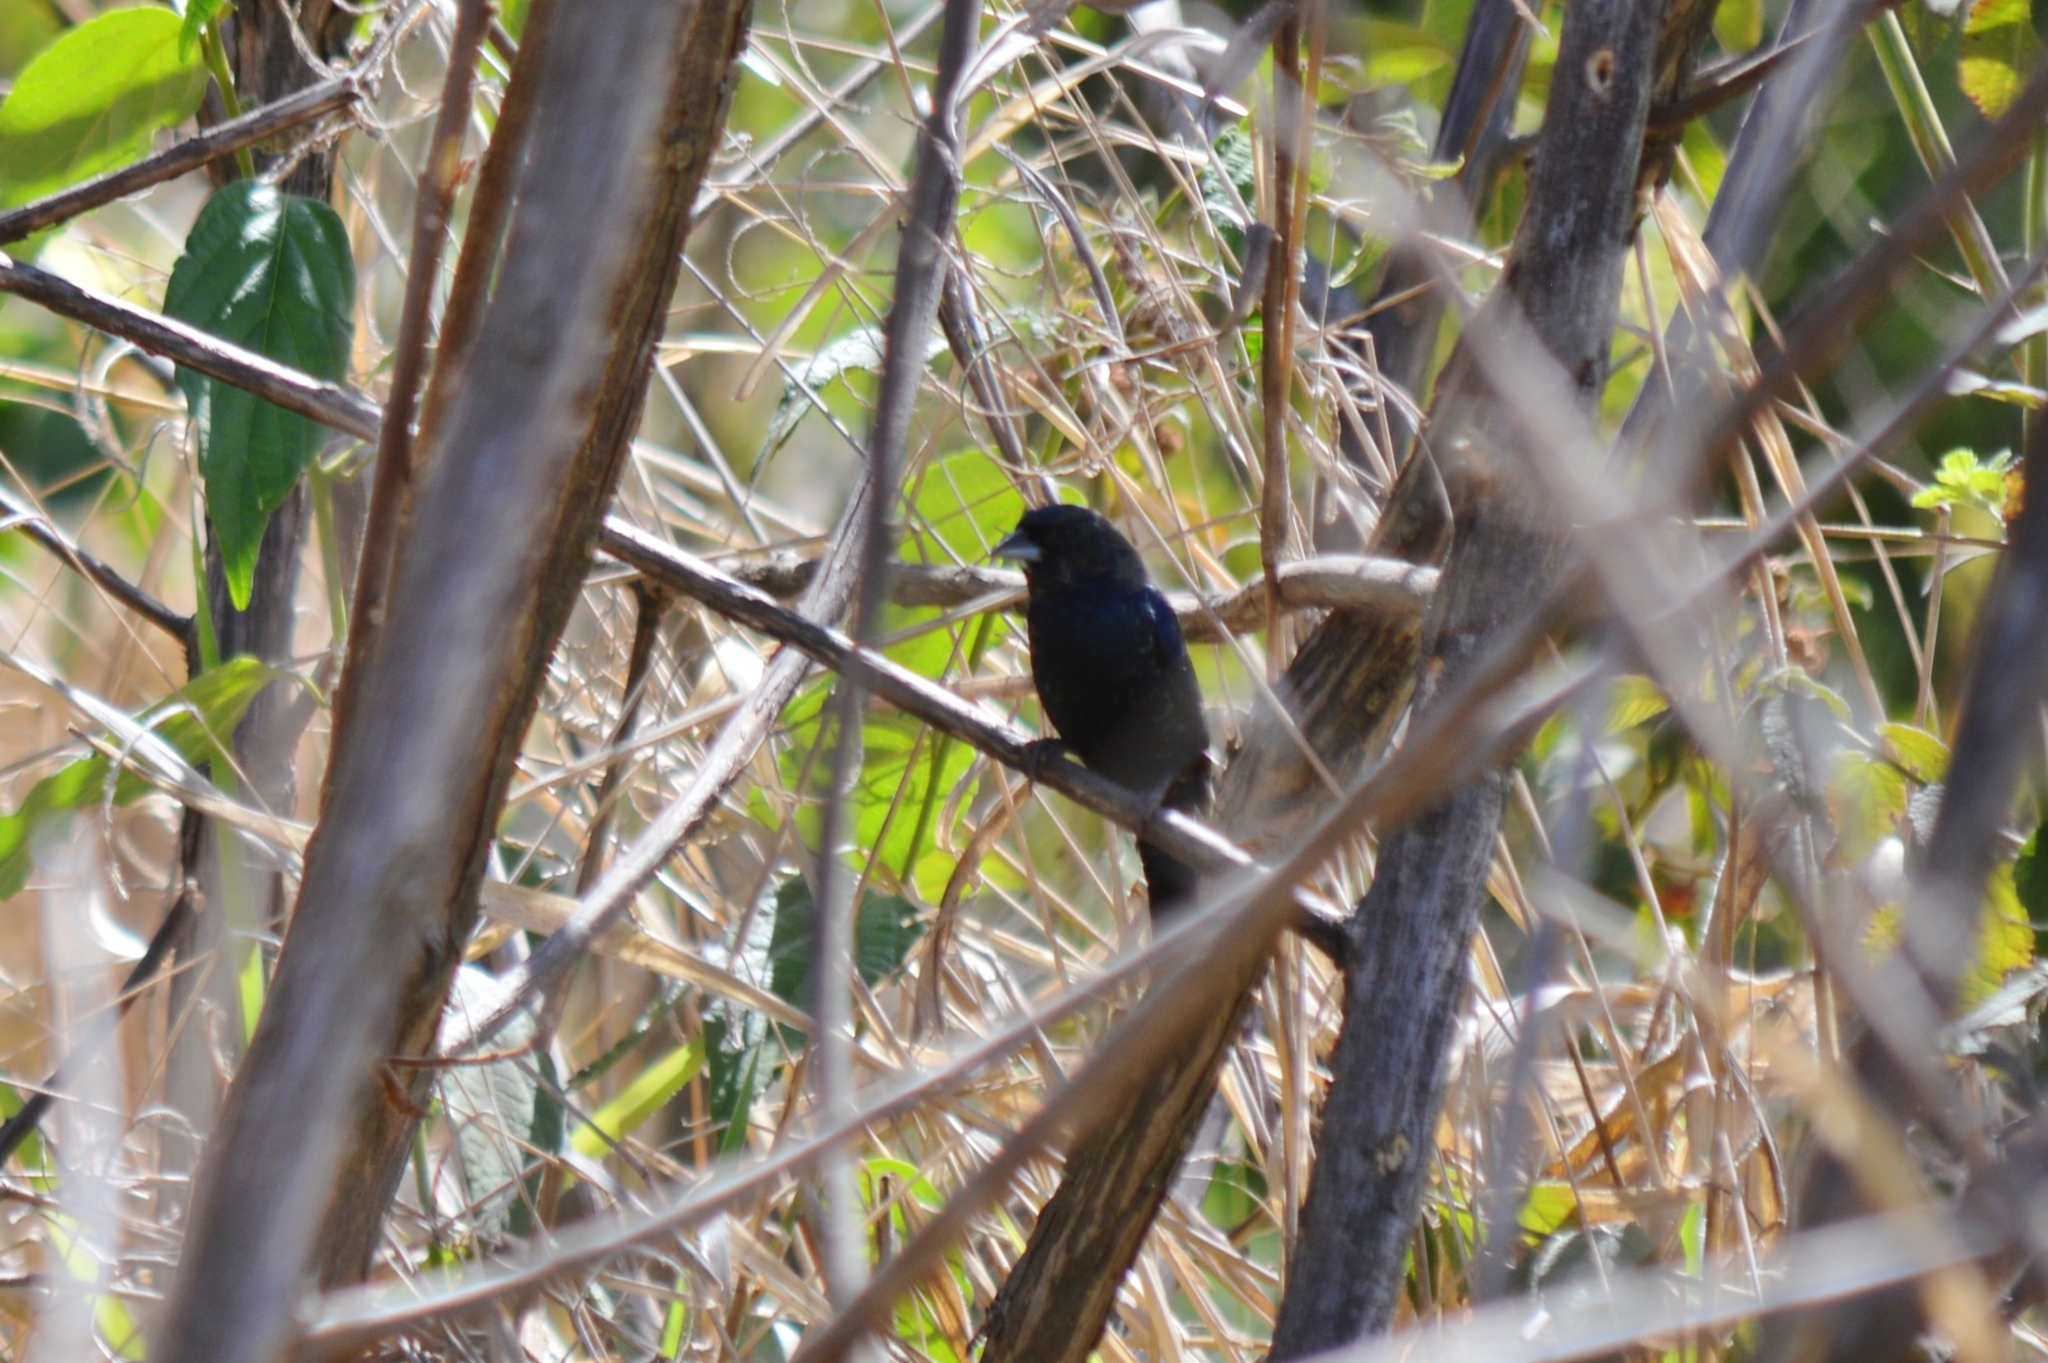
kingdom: Animalia
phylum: Chordata
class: Aves
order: Passeriformes
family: Thraupidae
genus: Volatinia
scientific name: Volatinia jacarina
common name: Blue-black grassquit
